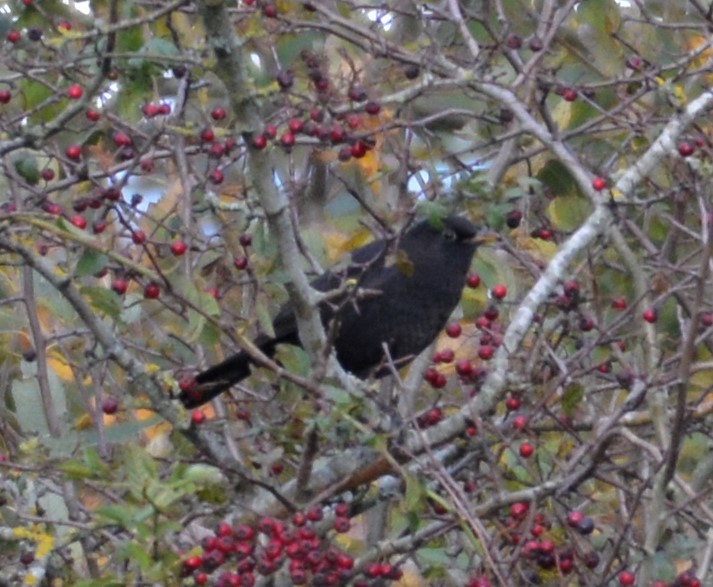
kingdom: Animalia
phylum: Chordata
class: Aves
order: Passeriformes
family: Turdidae
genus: Turdus
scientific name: Turdus merula
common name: Common blackbird
